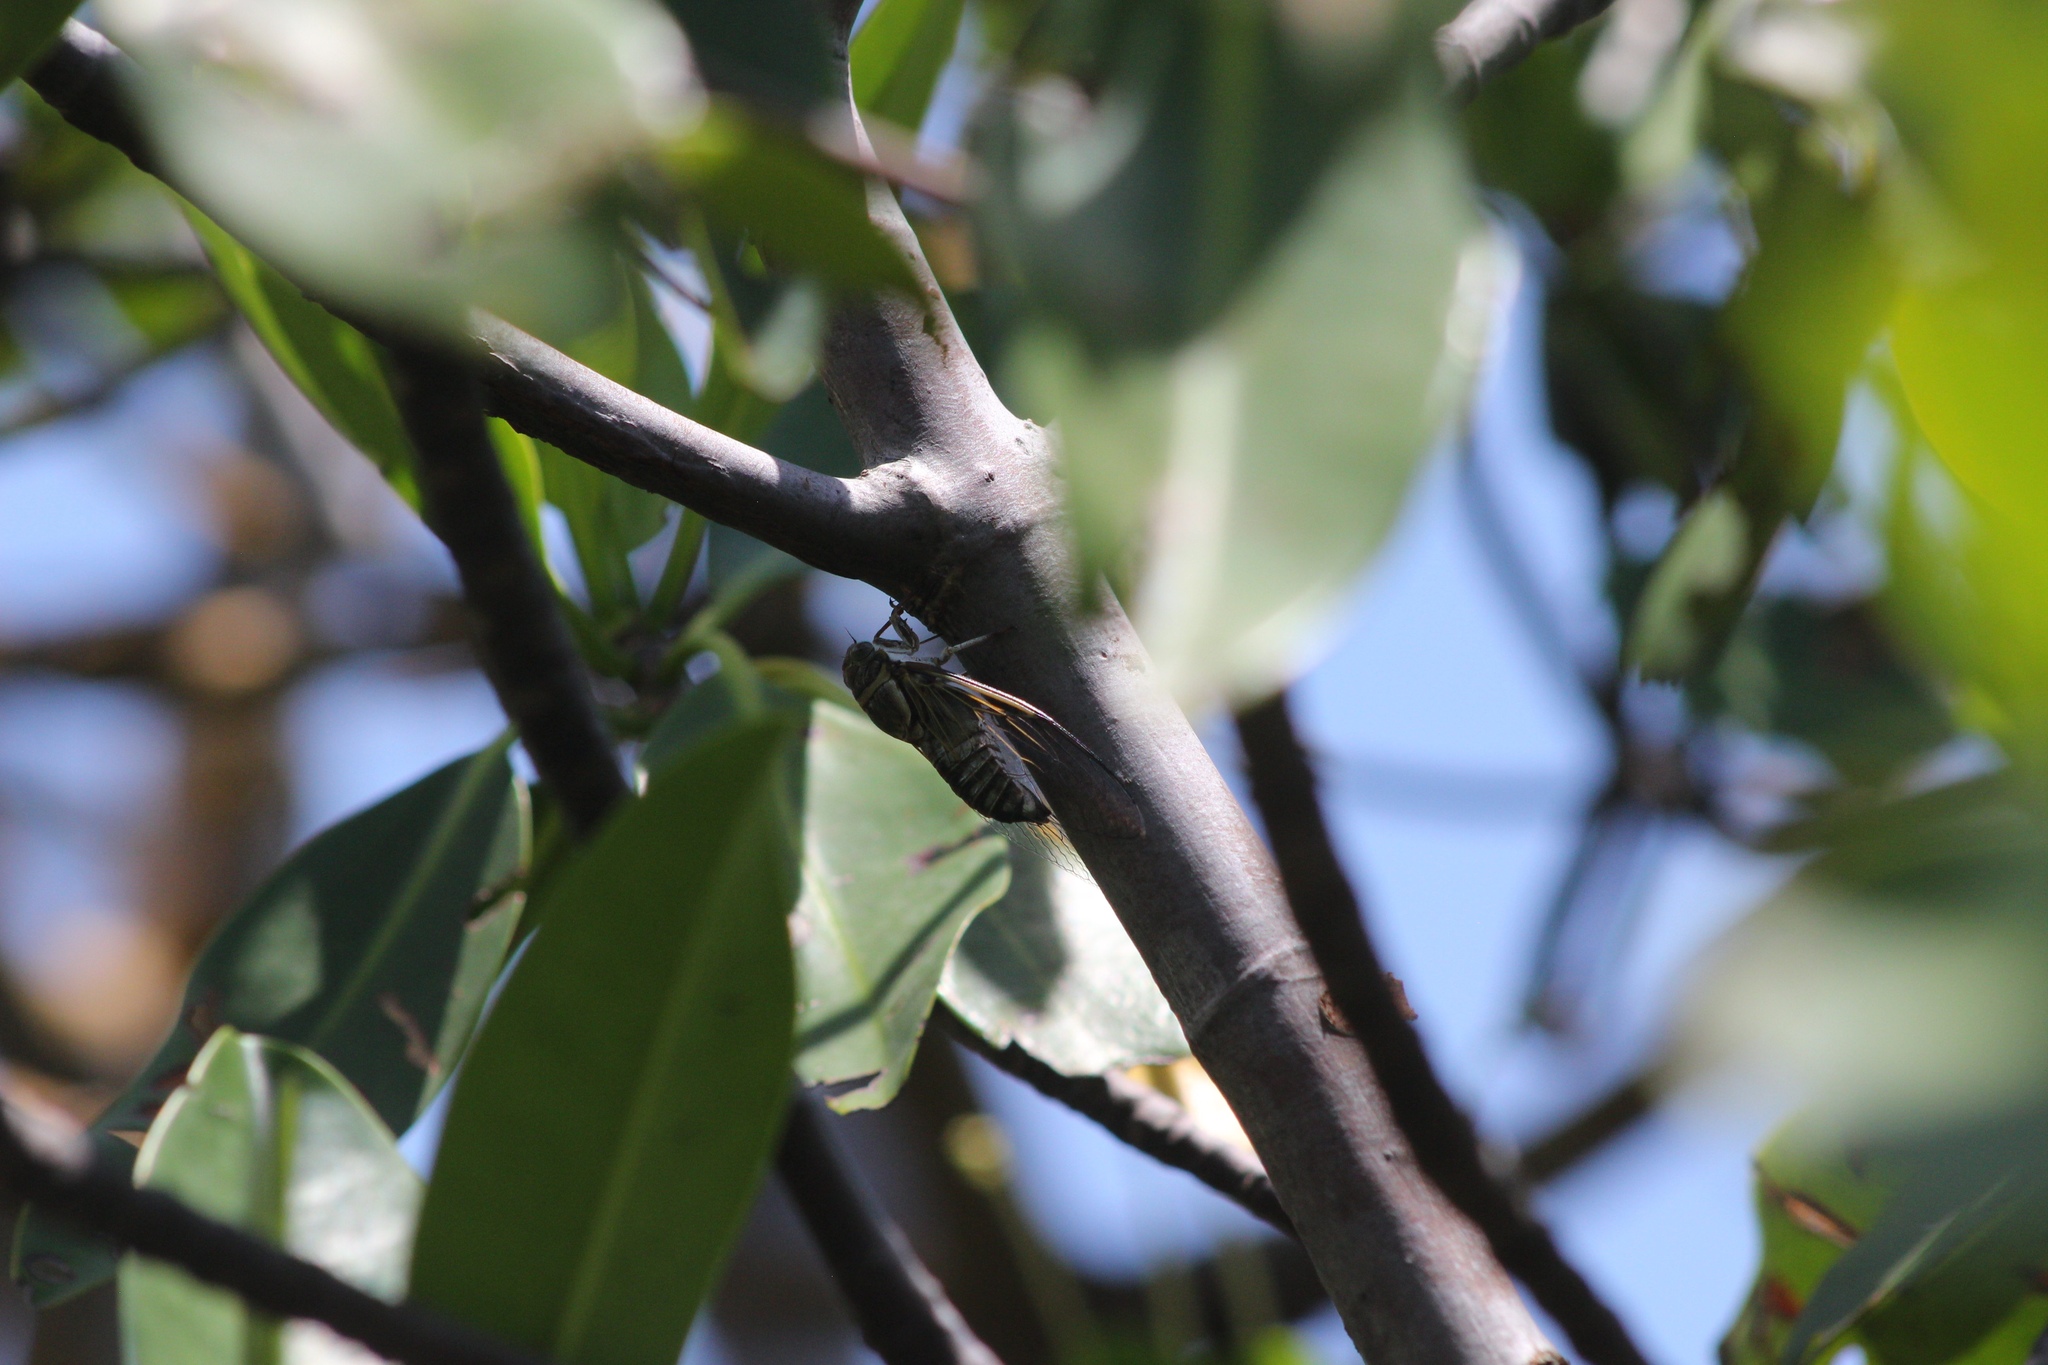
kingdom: Animalia
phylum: Arthropoda
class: Insecta
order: Hemiptera
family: Cicadidae
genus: Diceroprocta
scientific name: Diceroprocta viridifascia
